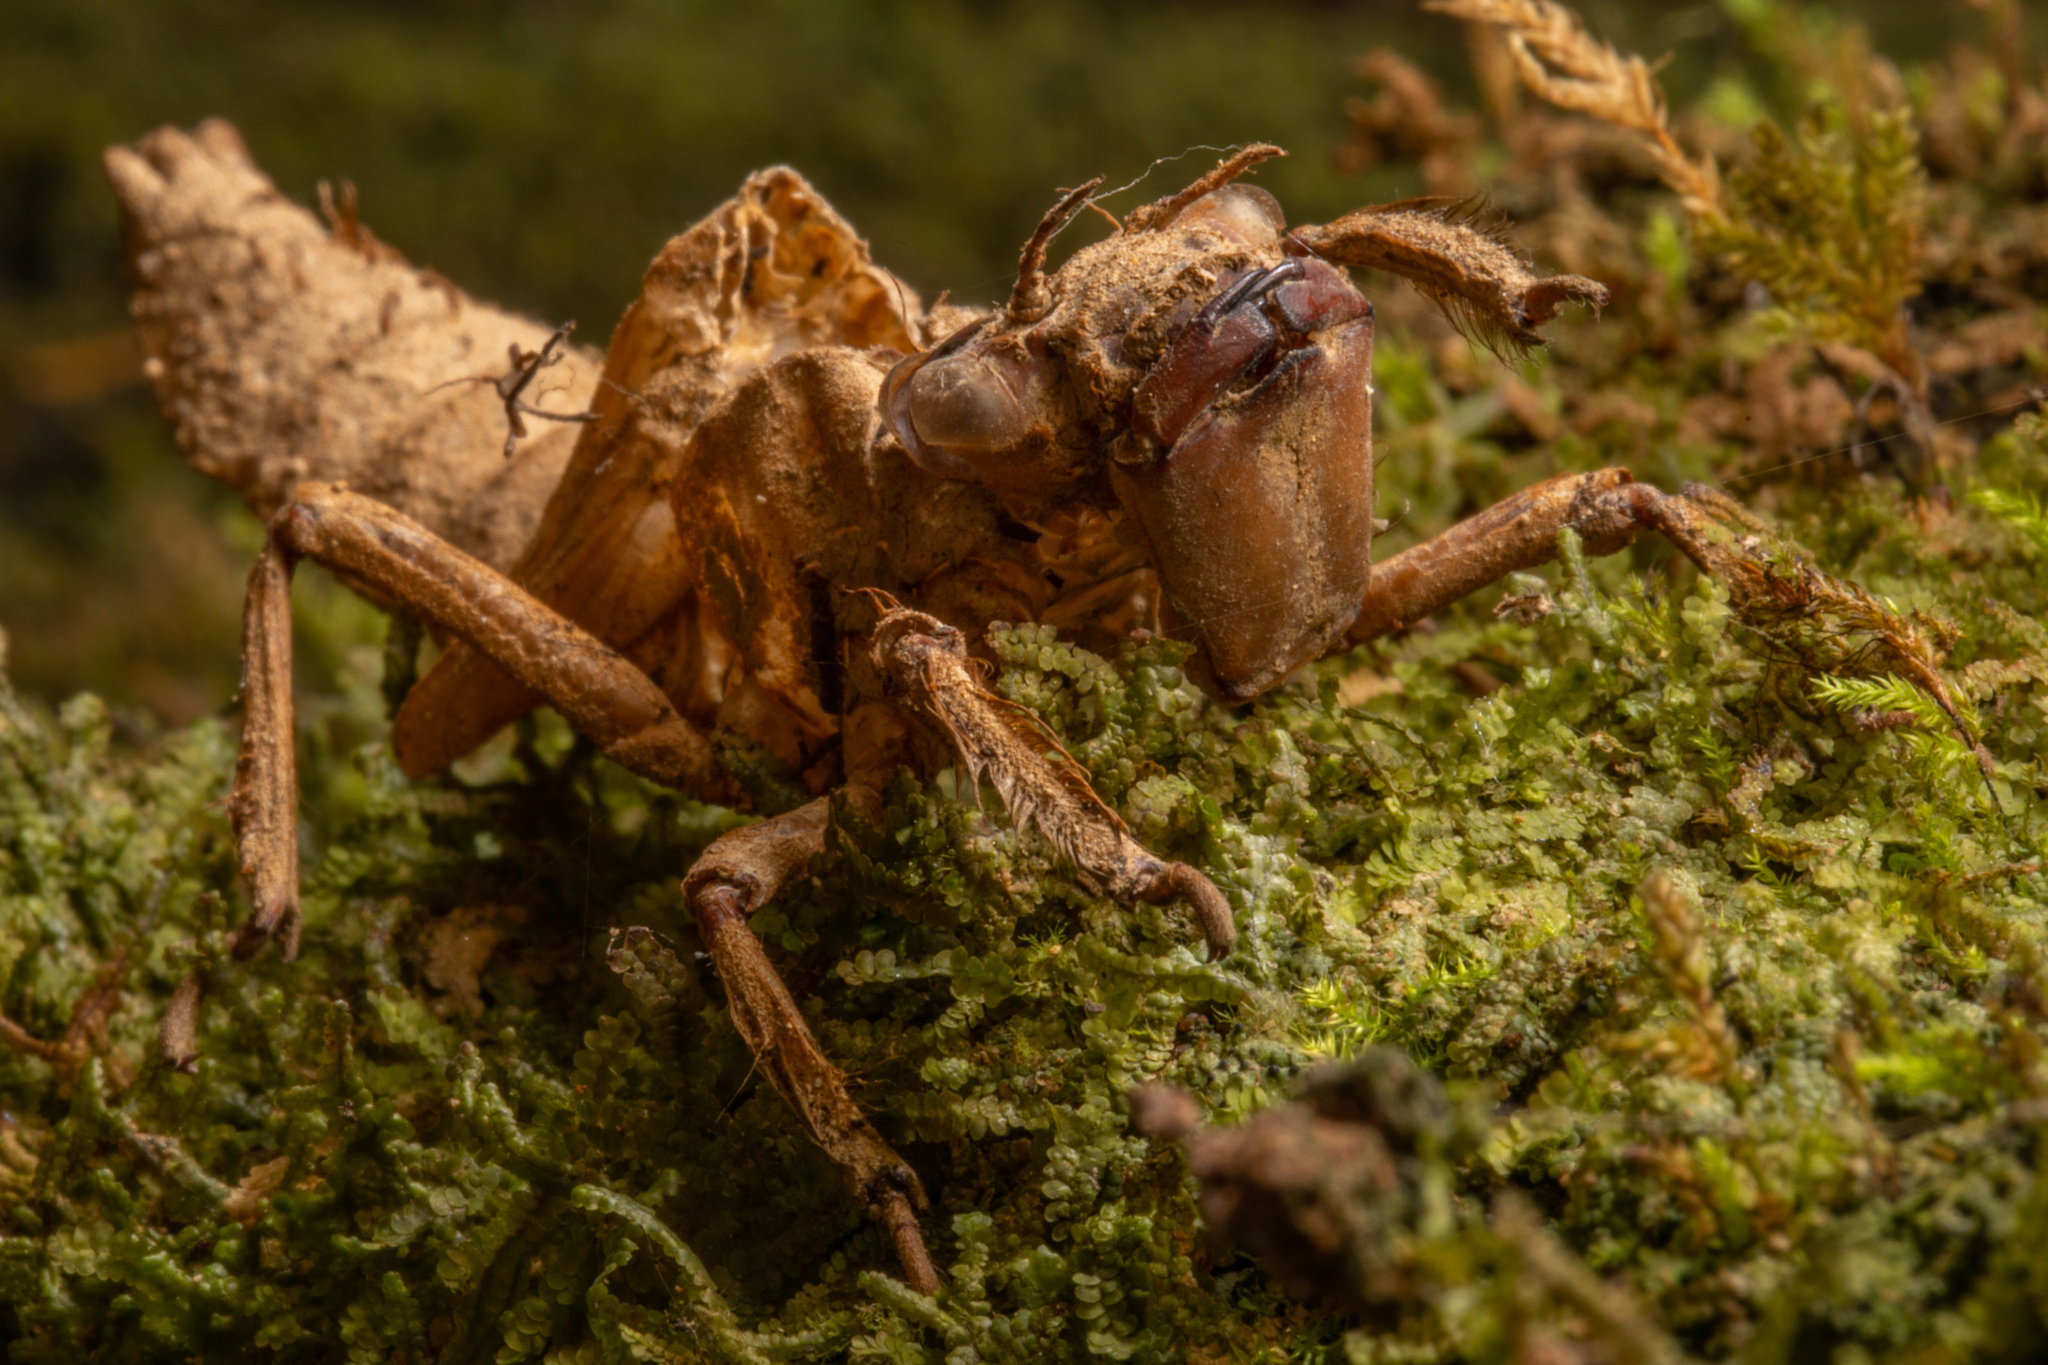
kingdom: Animalia
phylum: Arthropoda
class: Insecta
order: Odonata
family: Petaluridae
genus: Uropetala
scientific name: Uropetala carovei
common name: Bush giant dragonfly
